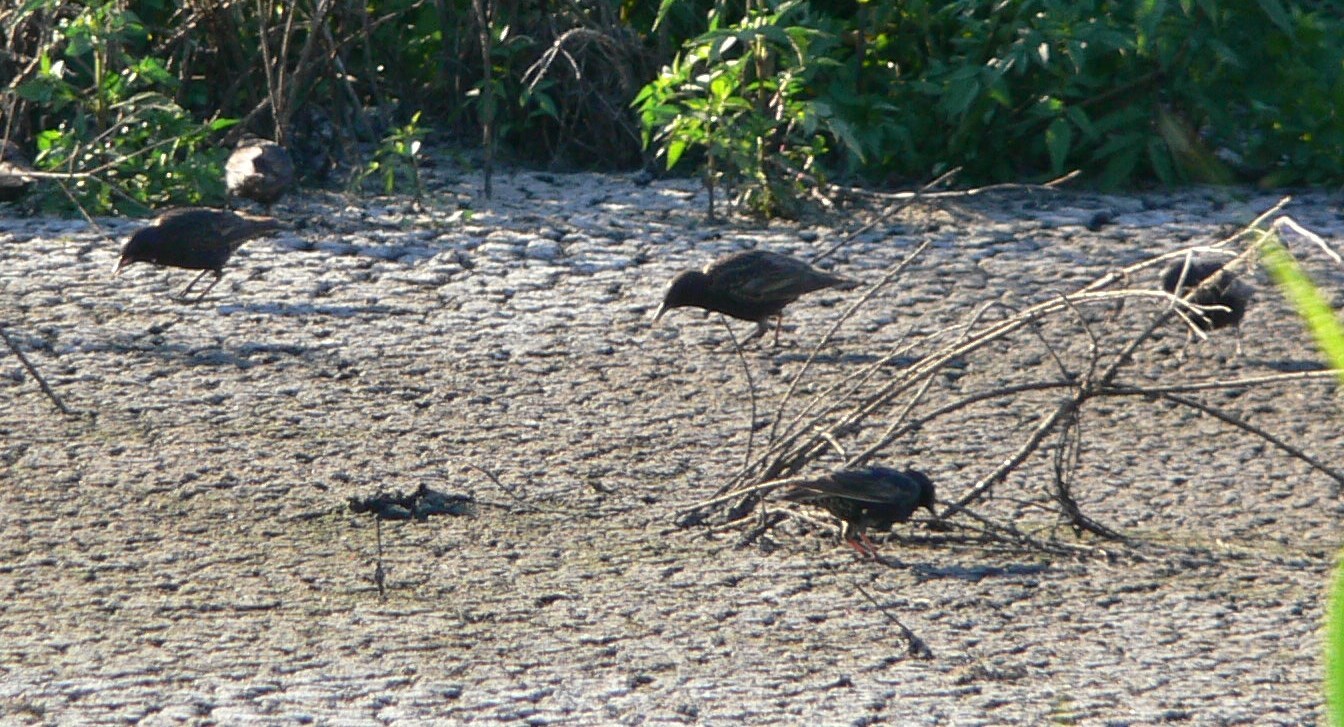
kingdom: Animalia
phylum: Chordata
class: Aves
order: Passeriformes
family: Sturnidae
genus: Sturnus
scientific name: Sturnus vulgaris
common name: Common starling
